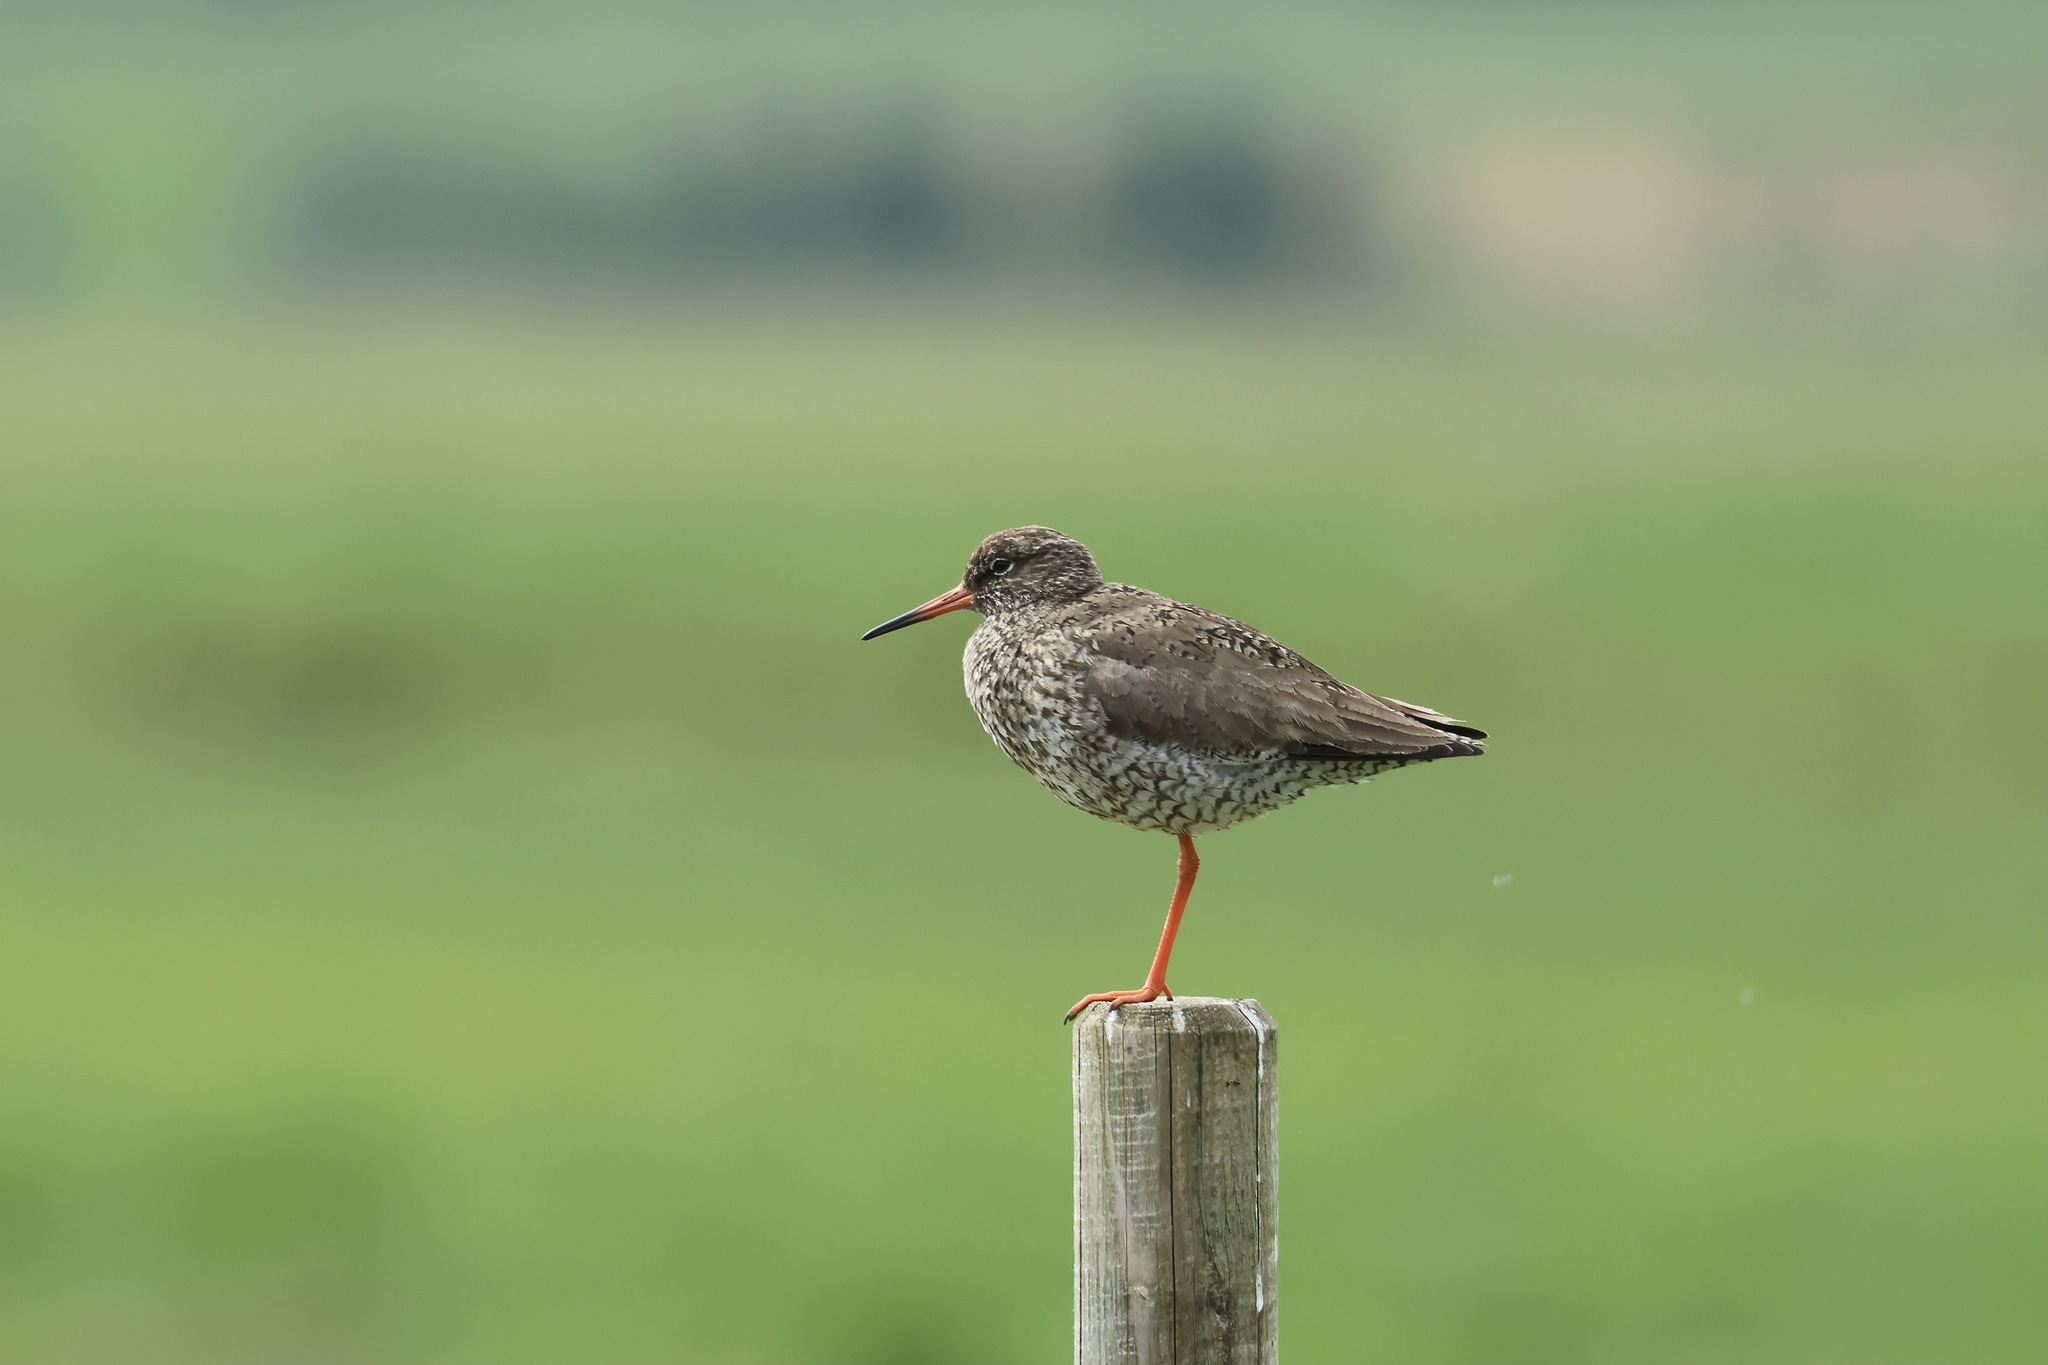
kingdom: Animalia
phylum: Chordata
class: Aves
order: Charadriiformes
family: Scolopacidae
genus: Tringa
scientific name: Tringa totanus
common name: Common redshank
